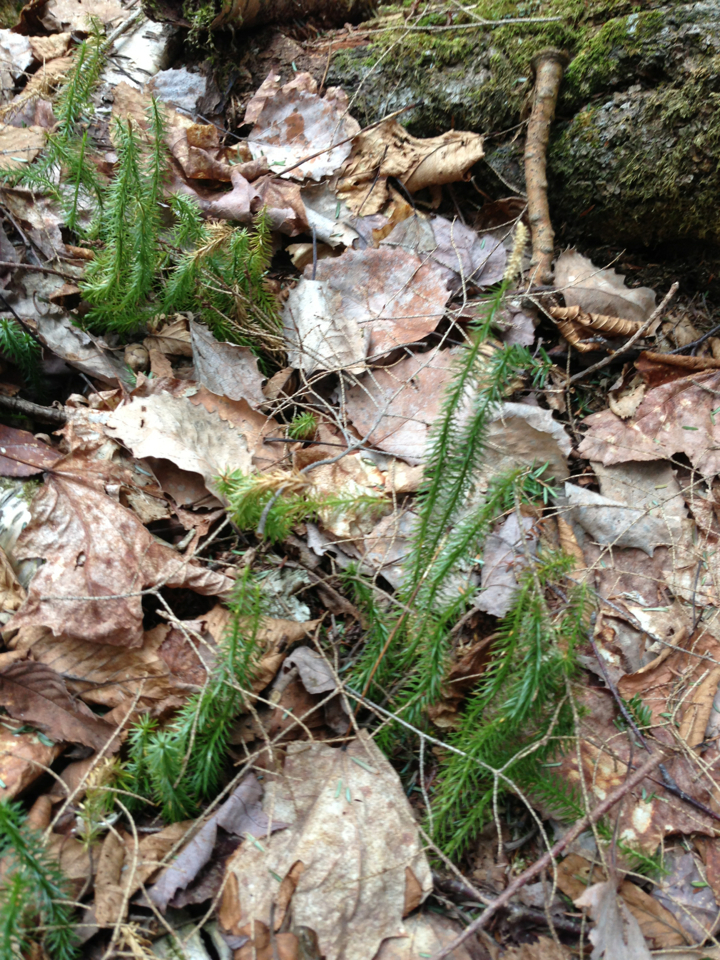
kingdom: Plantae
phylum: Tracheophyta
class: Lycopodiopsida
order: Lycopodiales
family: Lycopodiaceae
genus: Spinulum
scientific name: Spinulum annotinum
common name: Interrupted club-moss
